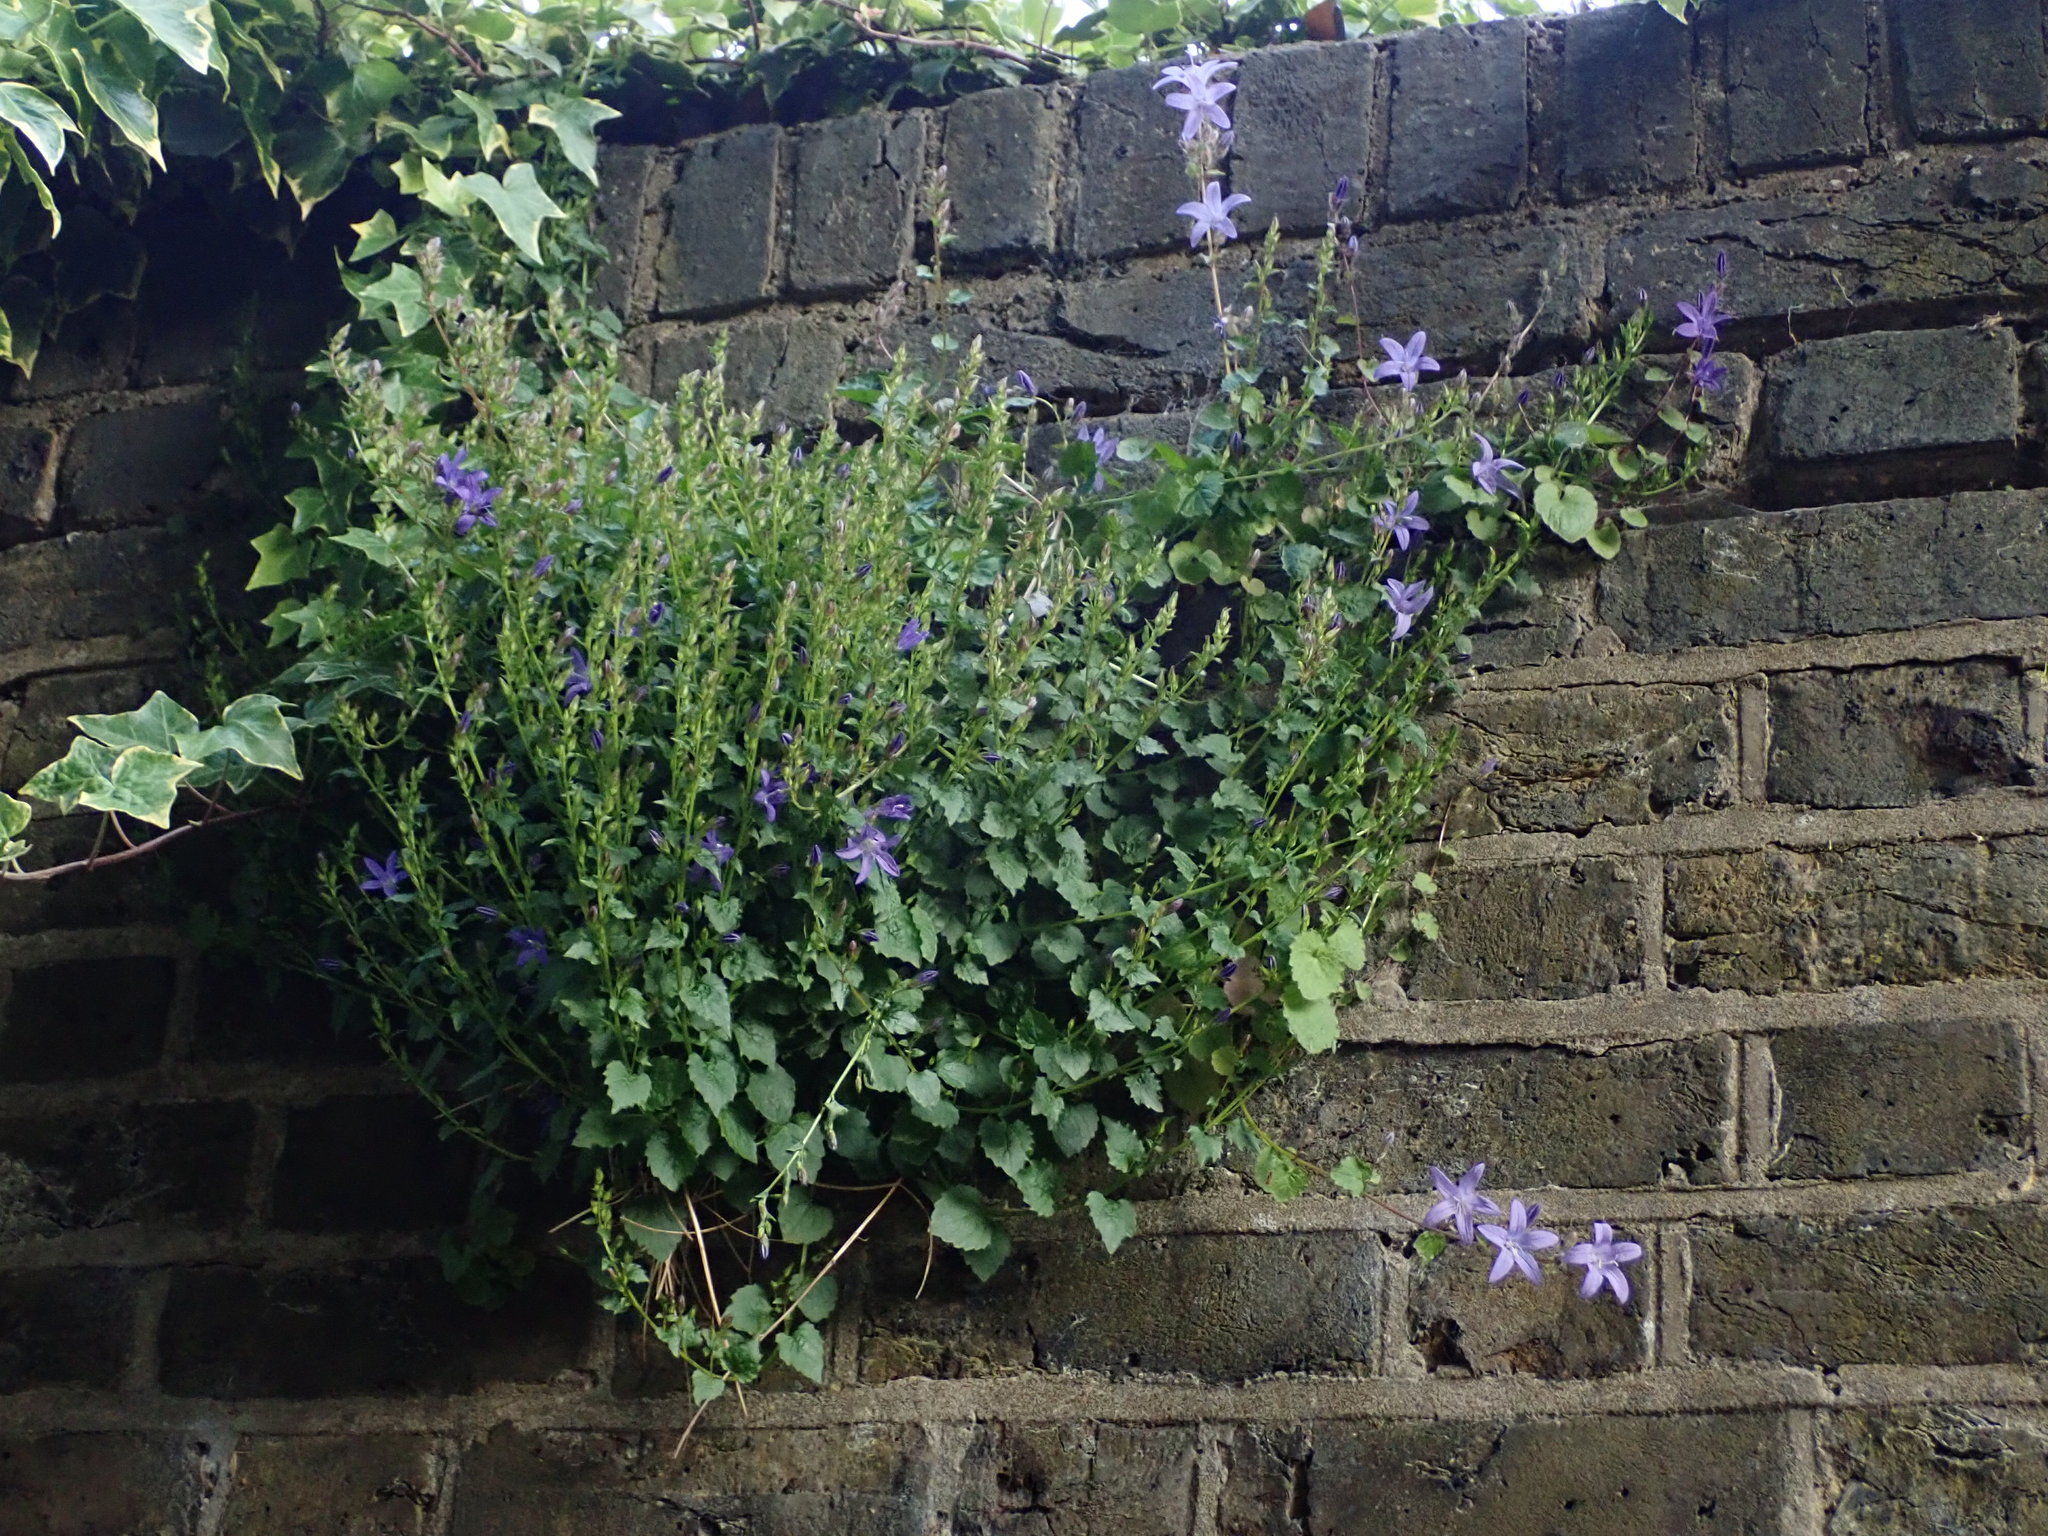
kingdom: Plantae
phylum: Tracheophyta
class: Magnoliopsida
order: Asterales
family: Campanulaceae
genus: Campanula
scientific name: Campanula poscharskyana
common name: Trailing bellflower
